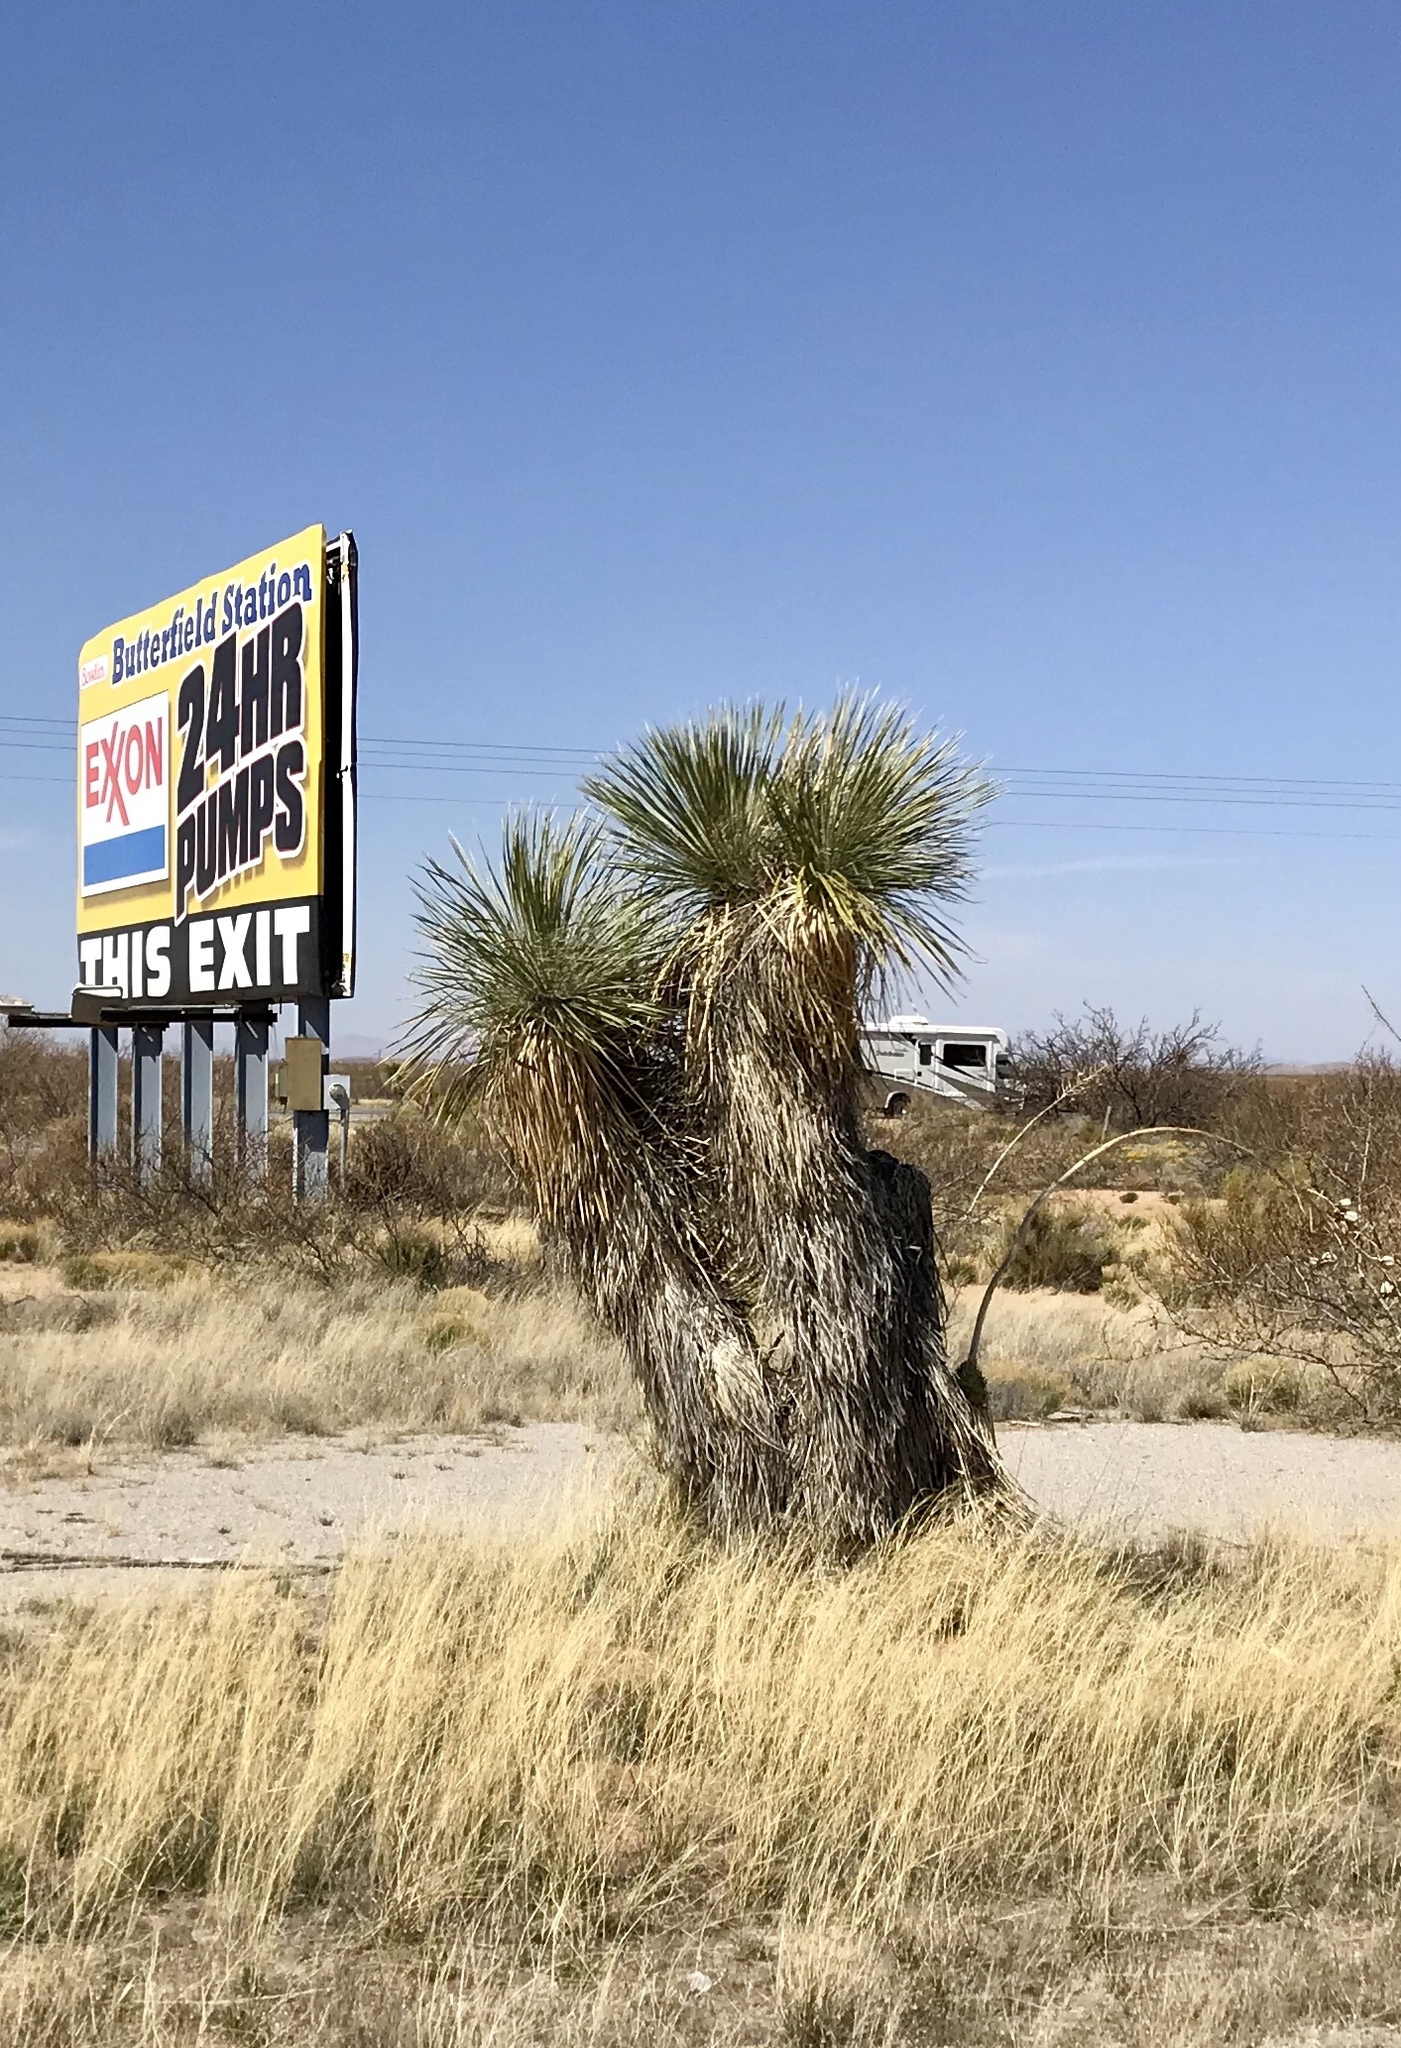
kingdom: Plantae
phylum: Tracheophyta
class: Liliopsida
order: Asparagales
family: Asparagaceae
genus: Yucca
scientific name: Yucca elata
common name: Palmella
